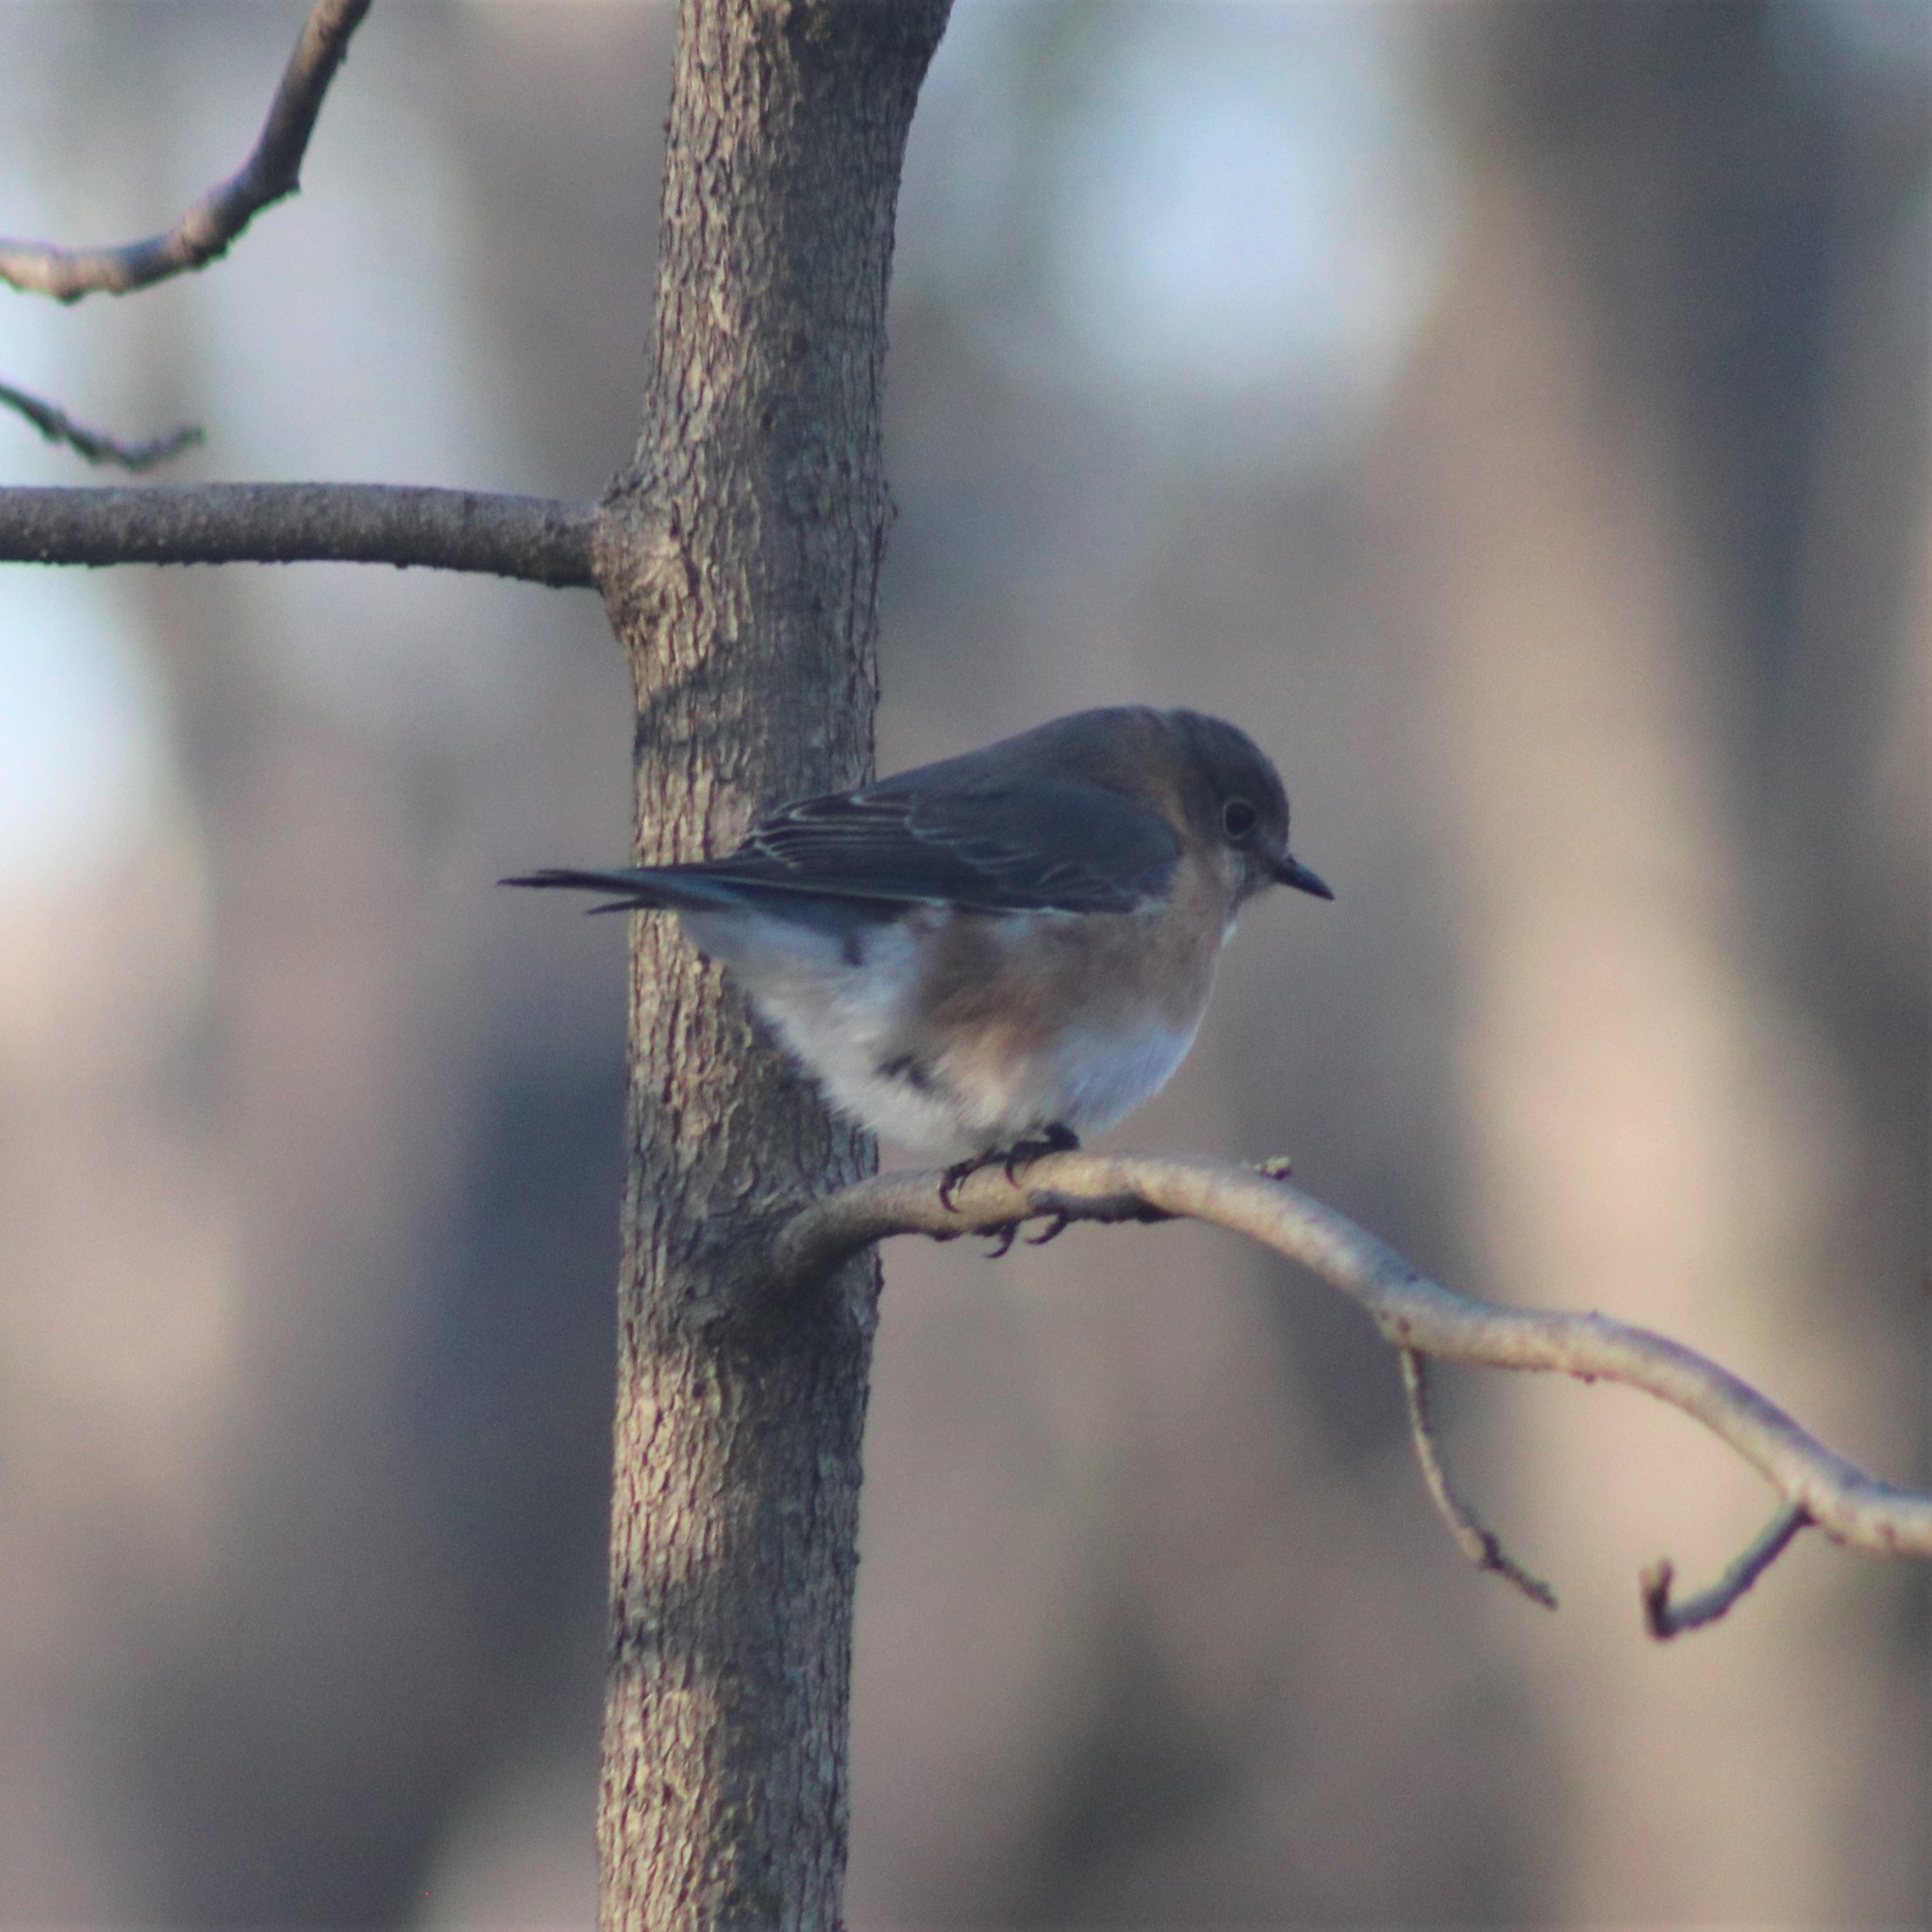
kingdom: Animalia
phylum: Chordata
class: Aves
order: Passeriformes
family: Turdidae
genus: Sialia
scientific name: Sialia sialis
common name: Eastern bluebird
